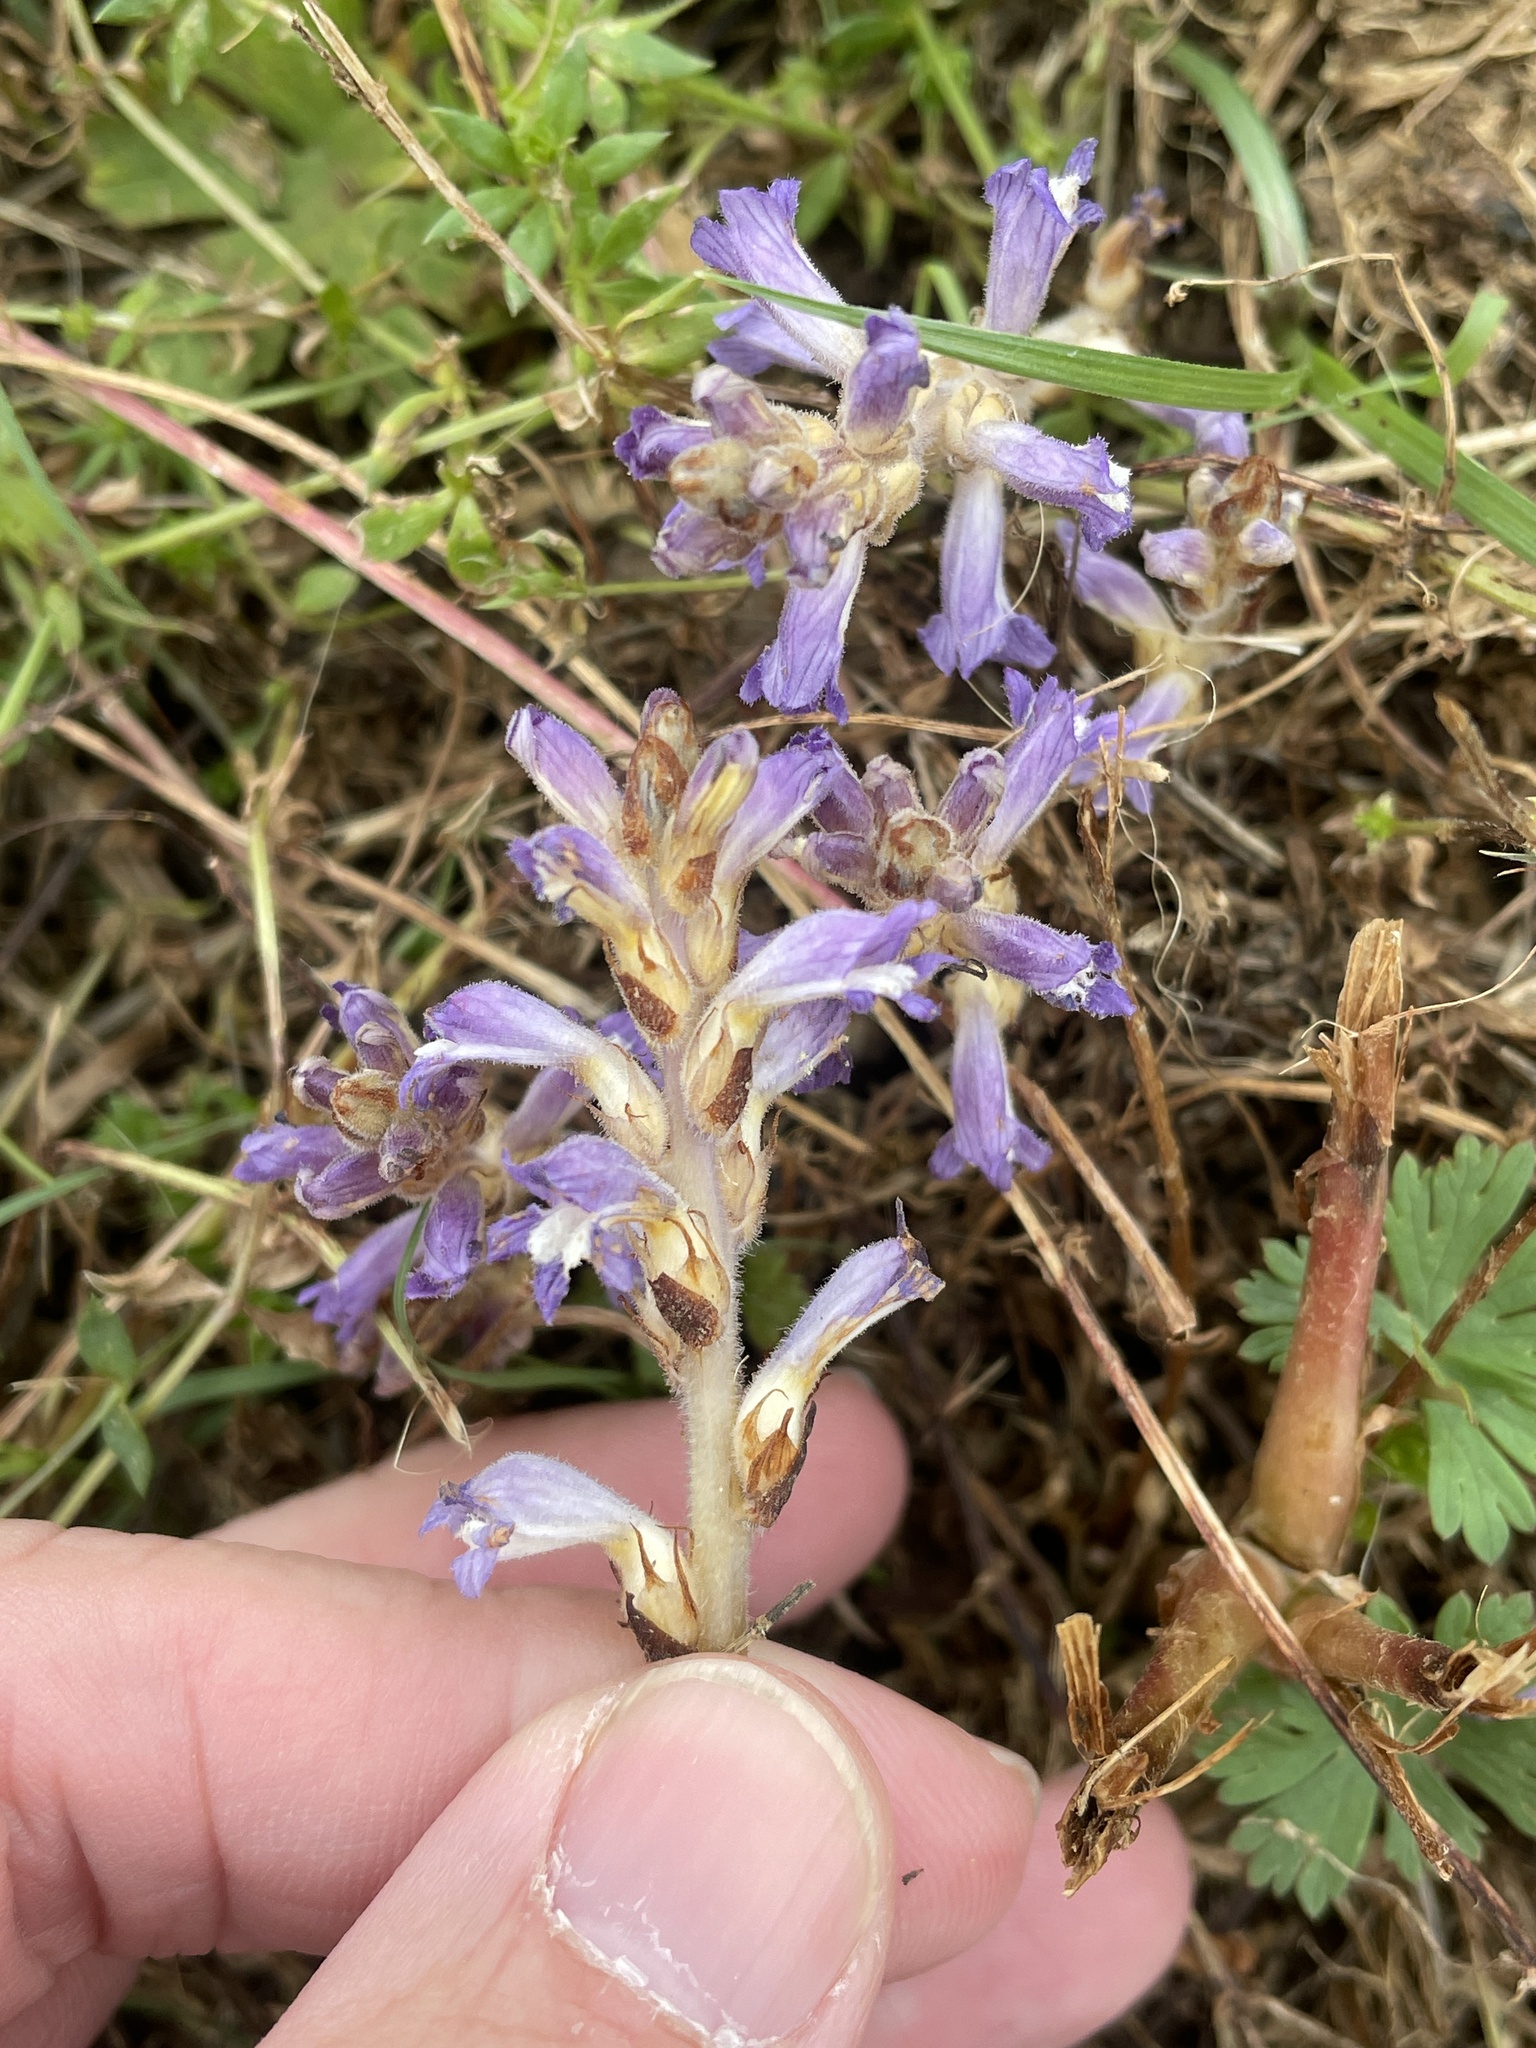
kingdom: Plantae
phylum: Tracheophyta
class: Magnoliopsida
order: Lamiales
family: Orobanchaceae
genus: Phelipanche
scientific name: Phelipanche mutelii
